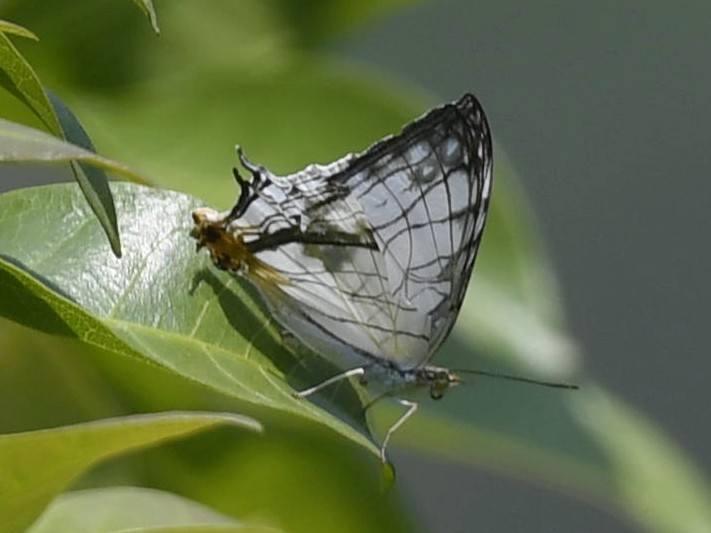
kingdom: Animalia
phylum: Arthropoda
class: Insecta
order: Lepidoptera
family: Nymphalidae
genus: Cyrestis
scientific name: Cyrestis thyodamas
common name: Common mapwing
